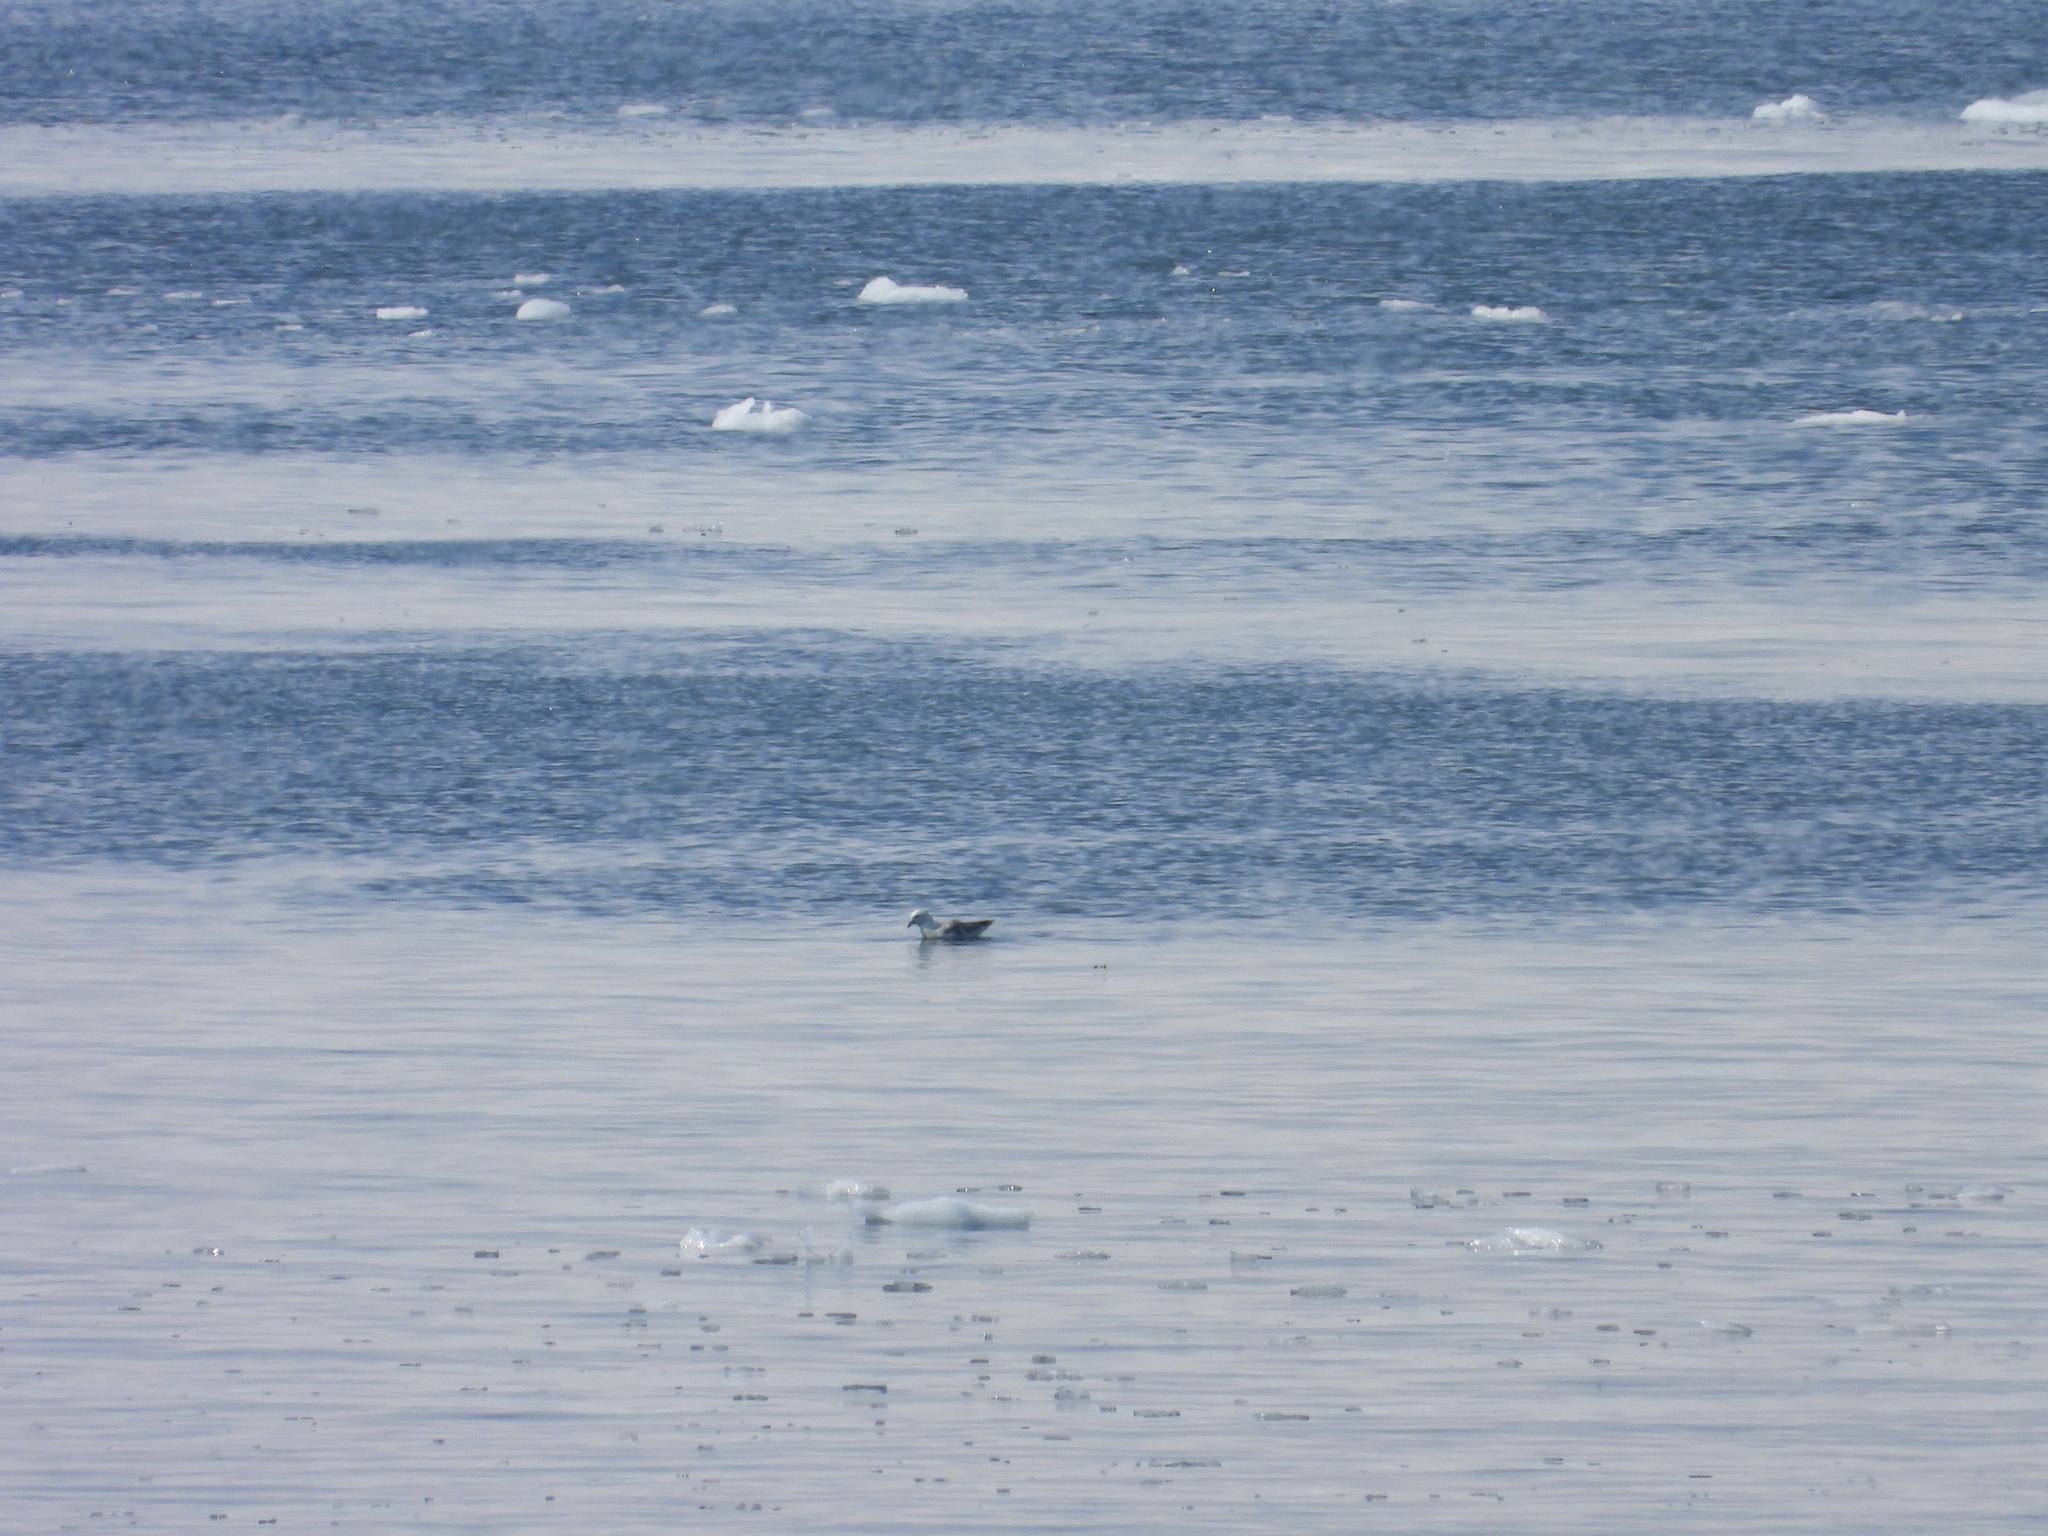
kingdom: Animalia
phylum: Chordata
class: Aves
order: Procellariiformes
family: Procellariidae
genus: Fulmarus
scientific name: Fulmarus glacialis
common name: Northern fulmar
